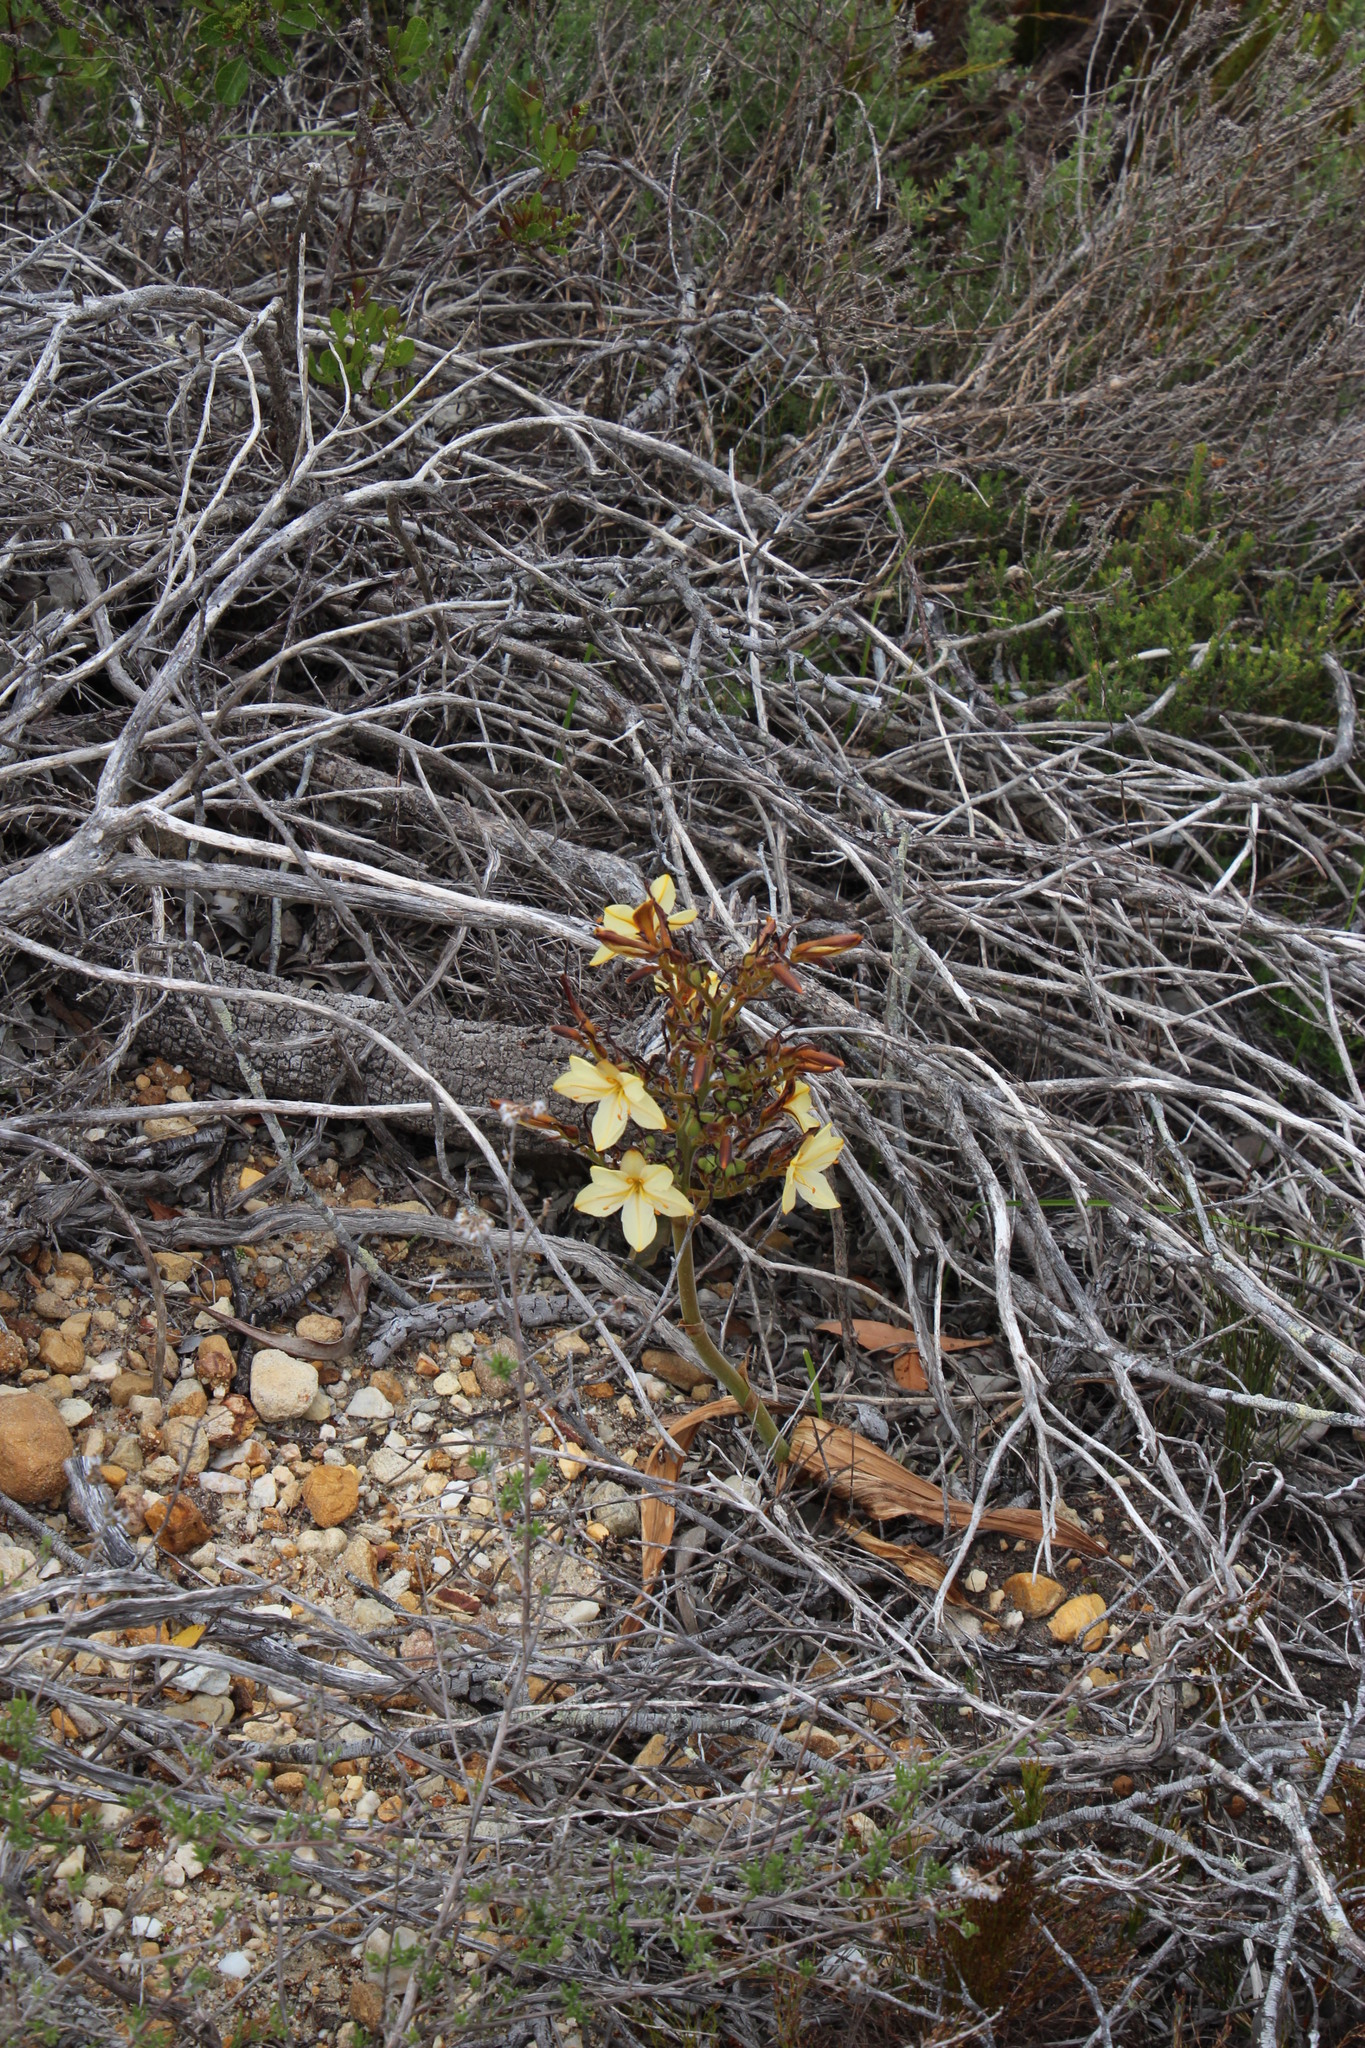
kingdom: Plantae
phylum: Tracheophyta
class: Liliopsida
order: Commelinales
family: Haemodoraceae
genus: Wachendorfia
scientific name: Wachendorfia paniculata
